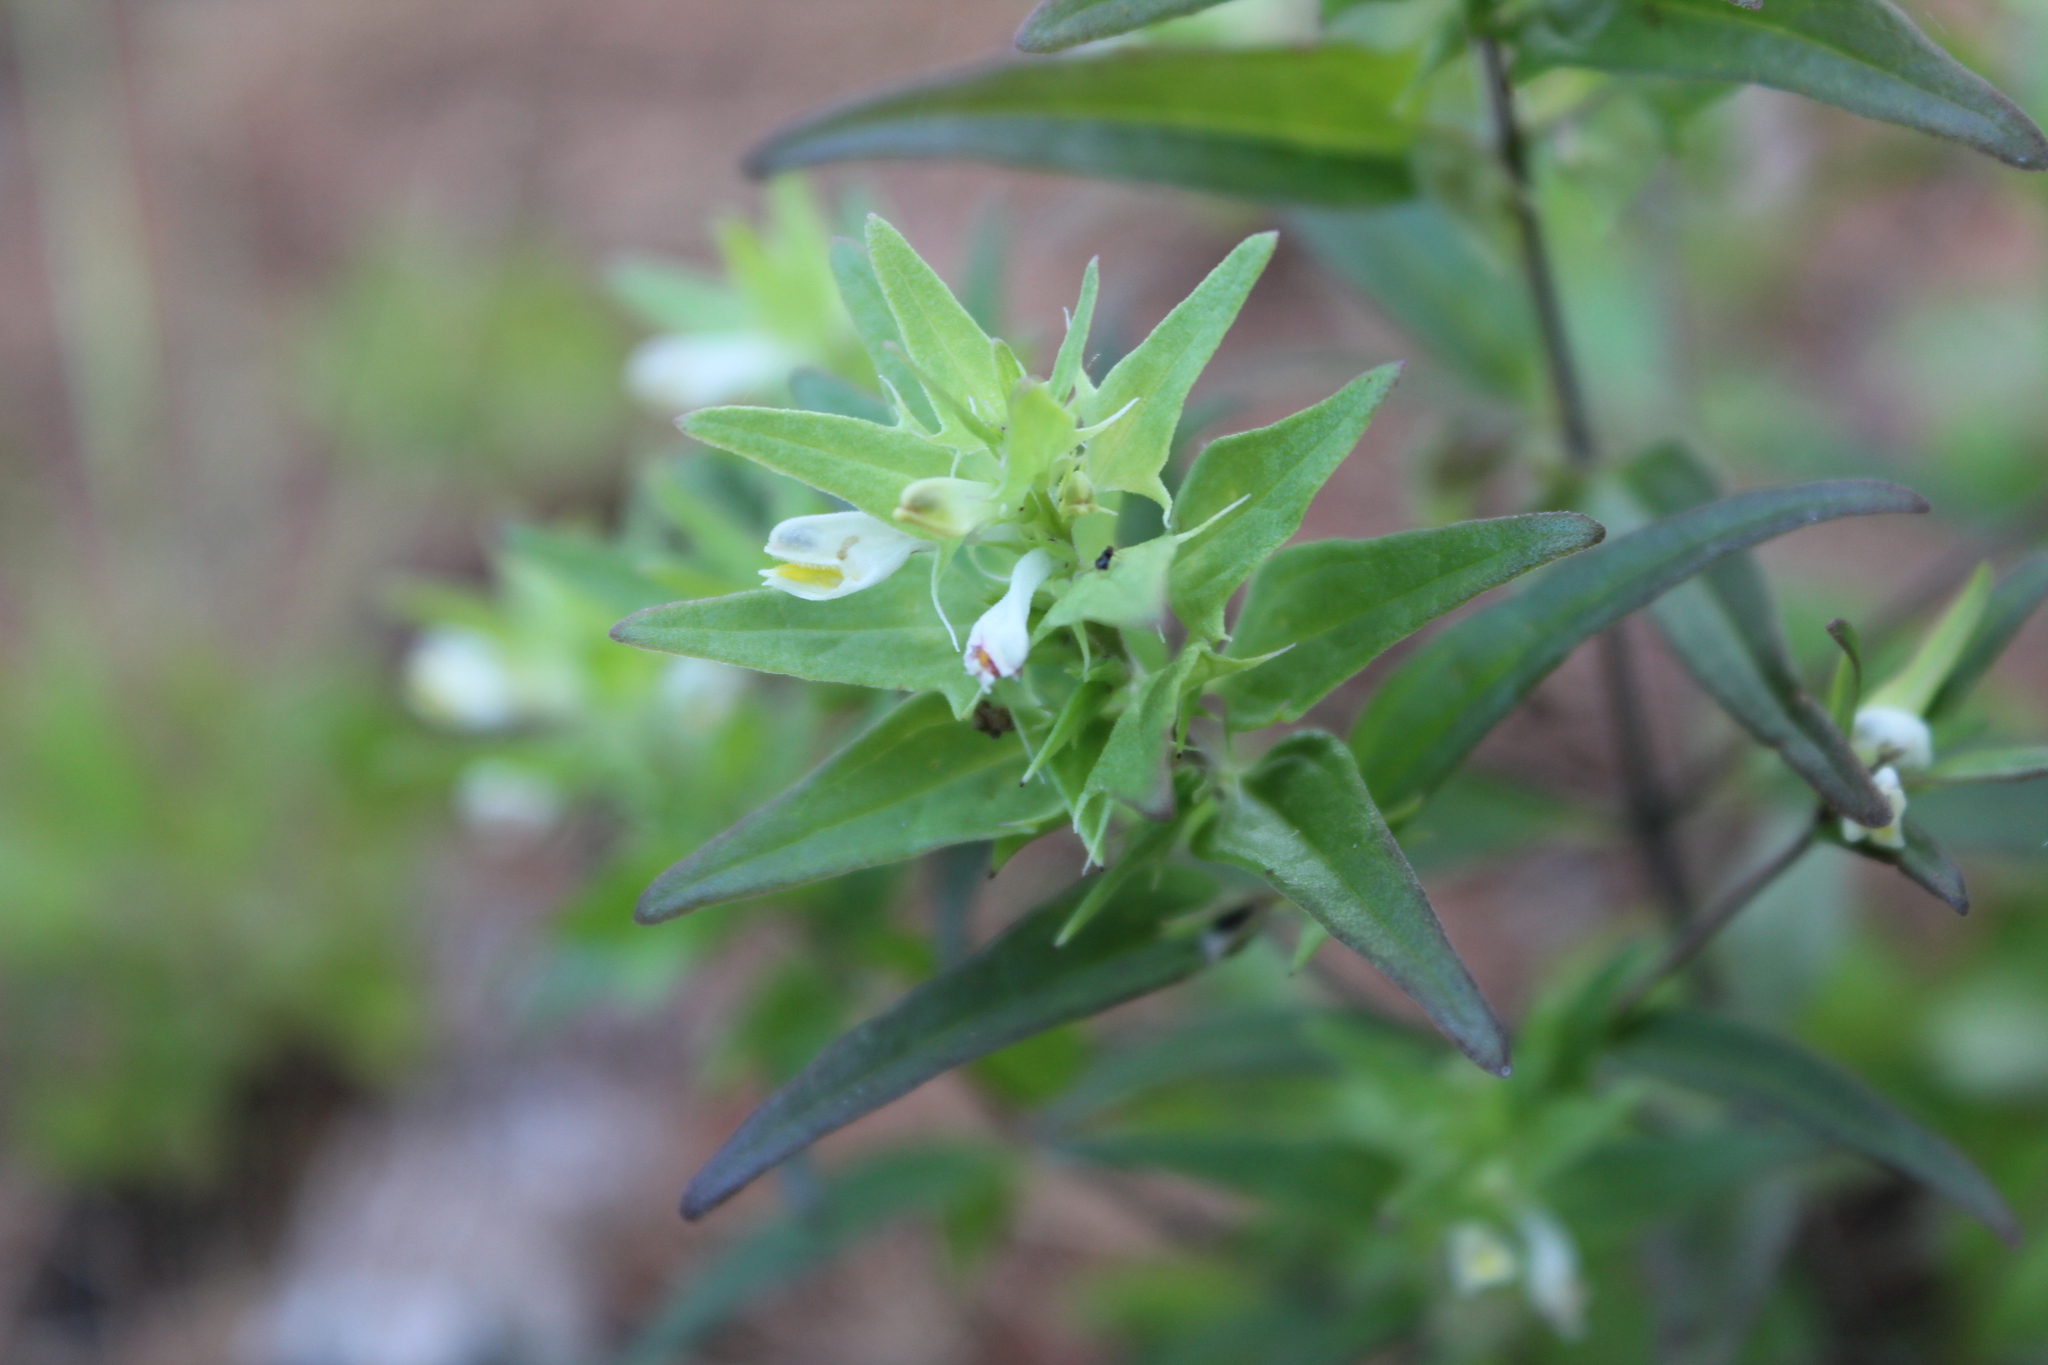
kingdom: Plantae
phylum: Tracheophyta
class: Magnoliopsida
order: Lamiales
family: Orobanchaceae
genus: Melampyrum
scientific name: Melampyrum lineare
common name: American cow-wheat
